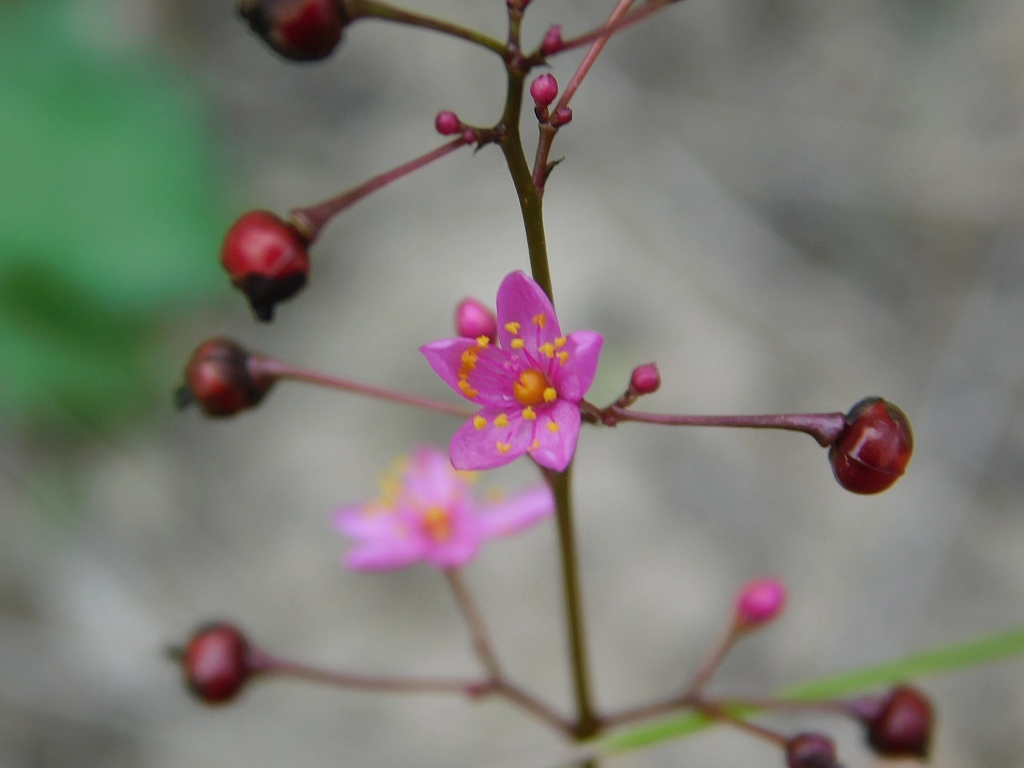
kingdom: Plantae
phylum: Tracheophyta
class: Magnoliopsida
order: Caryophyllales
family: Talinaceae
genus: Talinum
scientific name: Talinum paniculatum
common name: Jewels of opar
